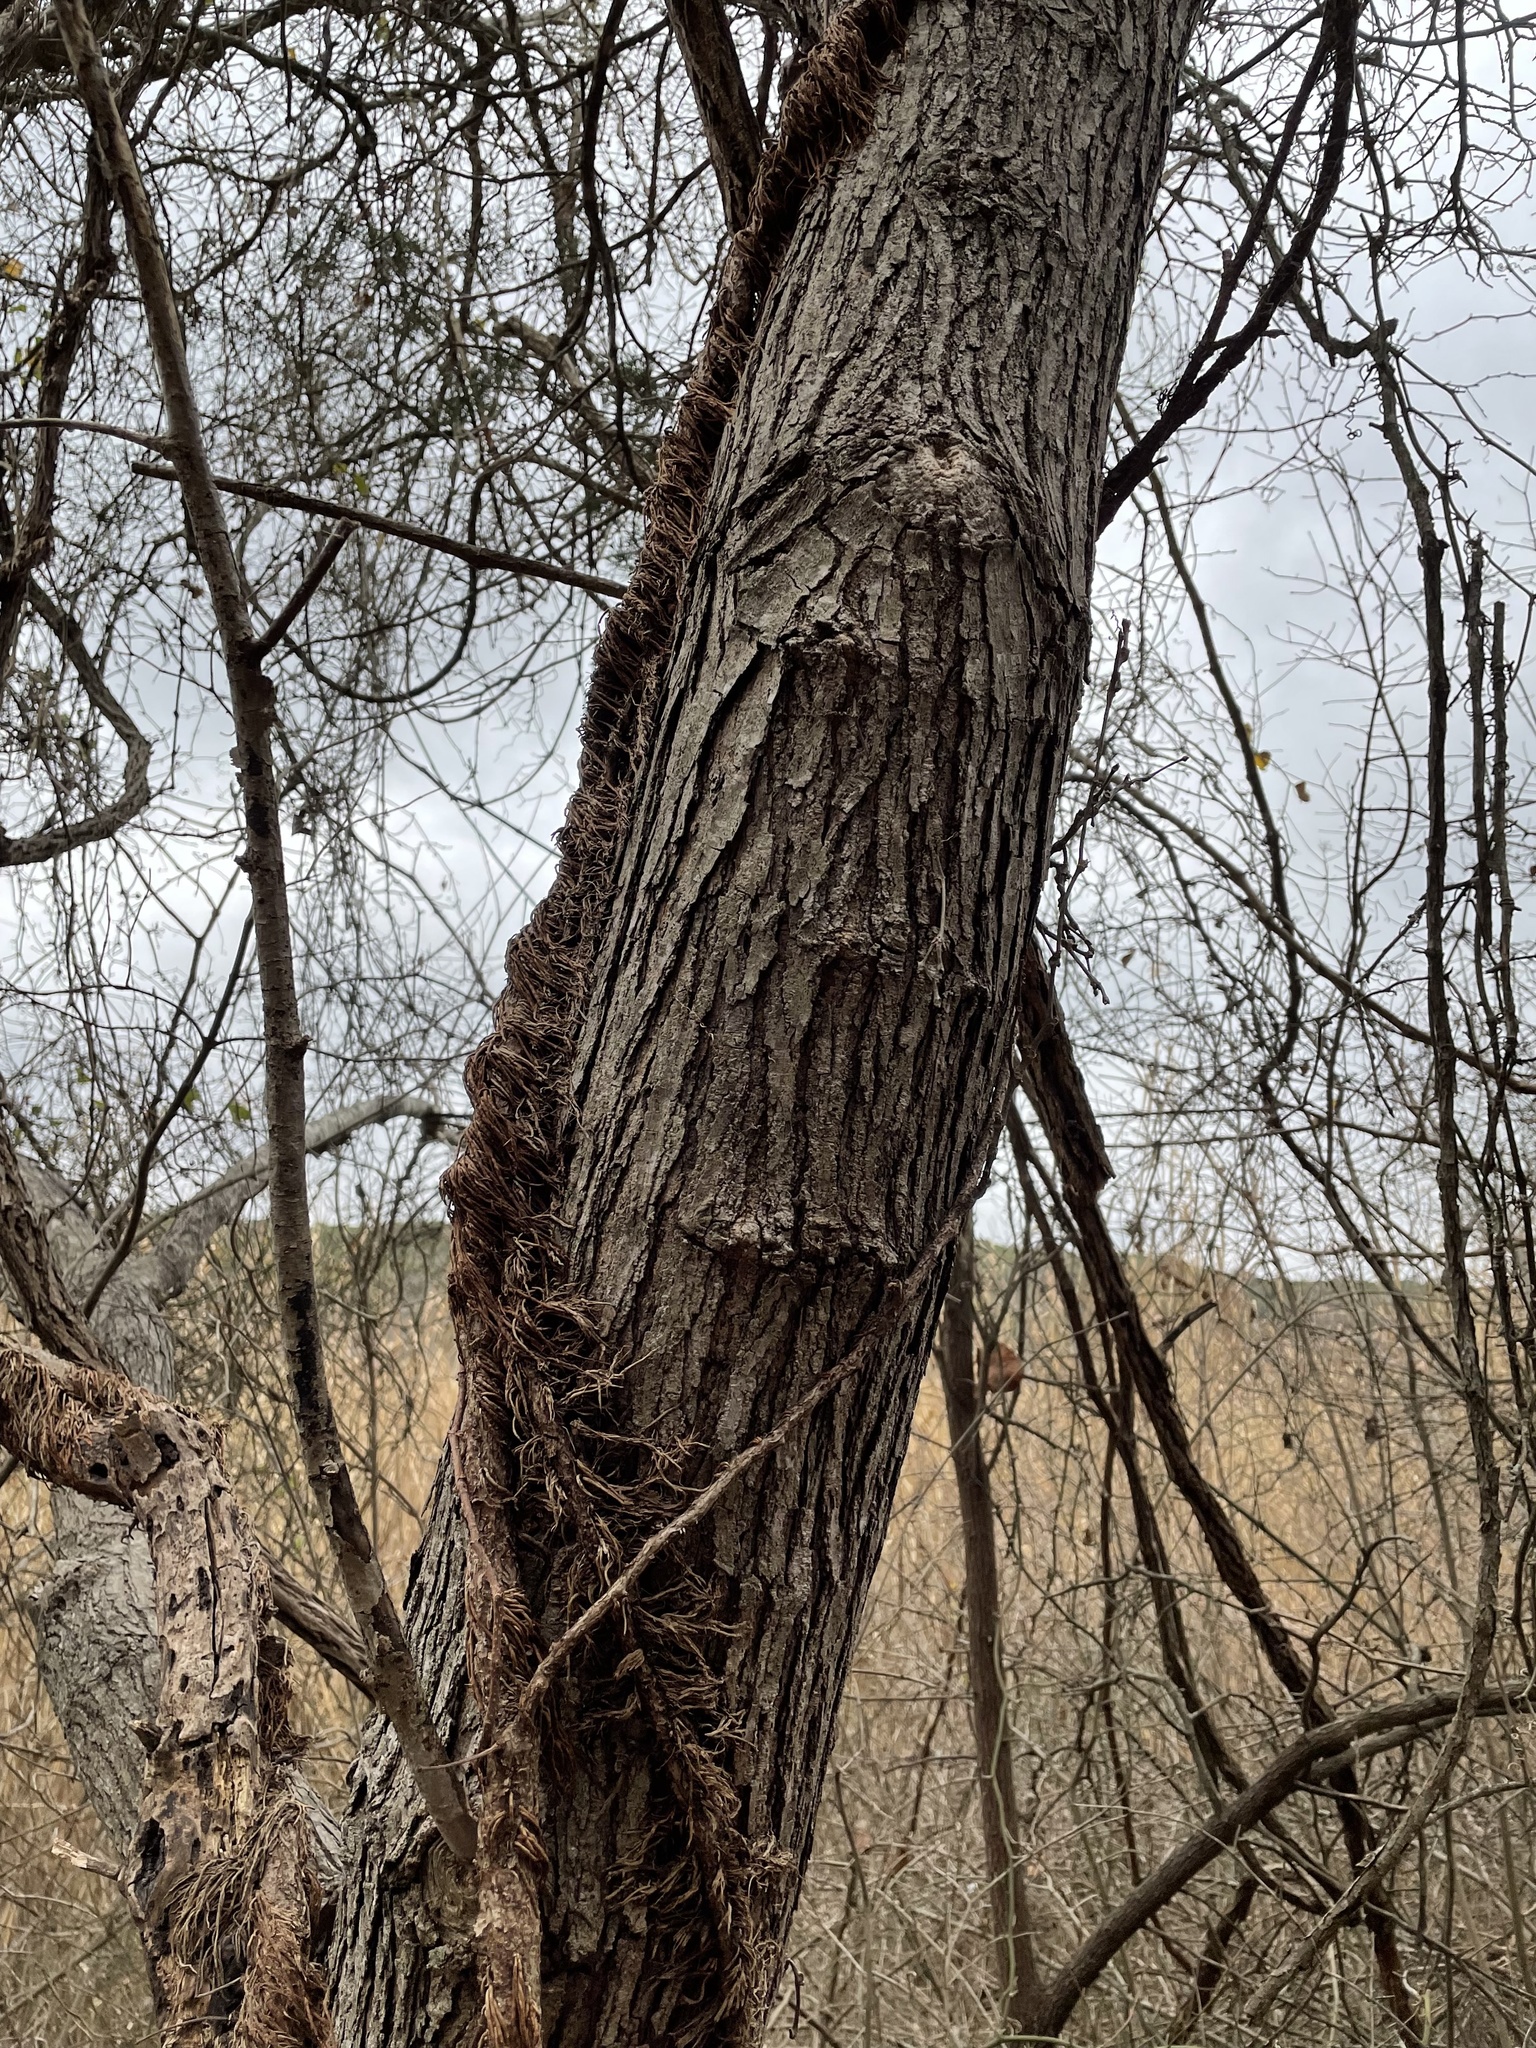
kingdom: Plantae
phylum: Tracheophyta
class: Magnoliopsida
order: Rosales
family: Moraceae
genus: Morus
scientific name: Morus rubra
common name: Red mulberry
